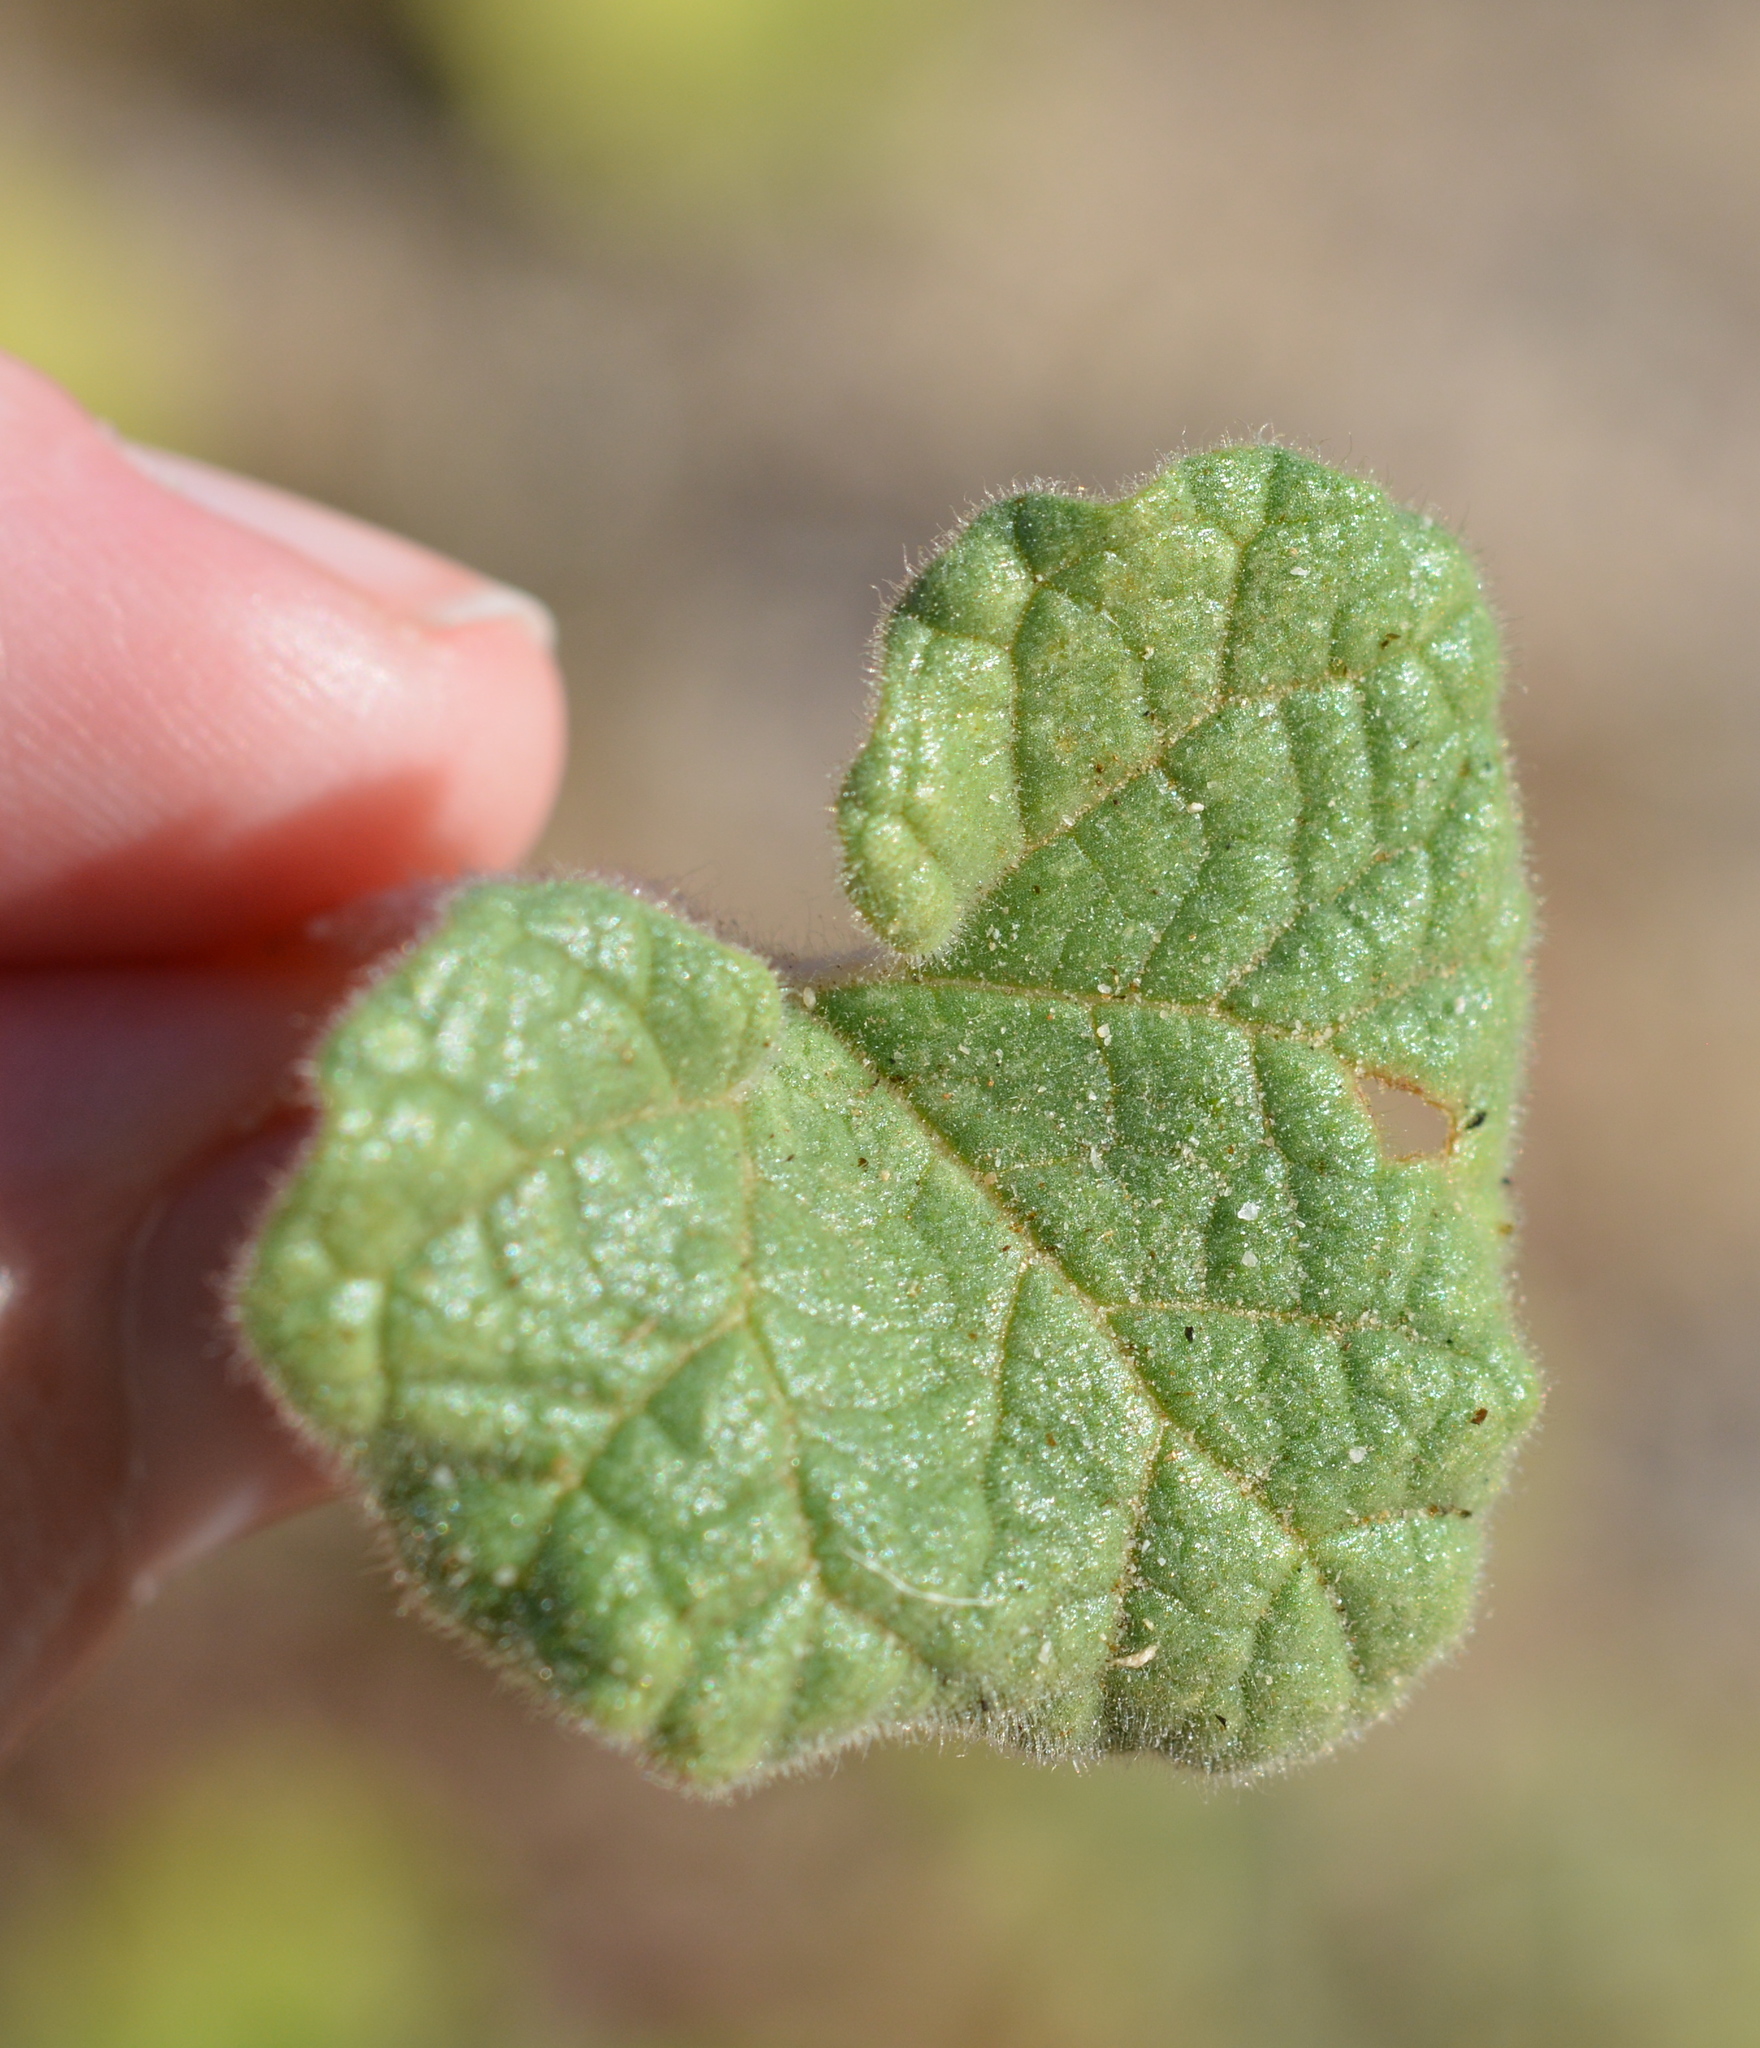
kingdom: Plantae
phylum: Tracheophyta
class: Magnoliopsida
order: Lamiales
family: Martyniaceae
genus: Proboscidea
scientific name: Proboscidea althaeifolia
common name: Desert unicorn-plant
